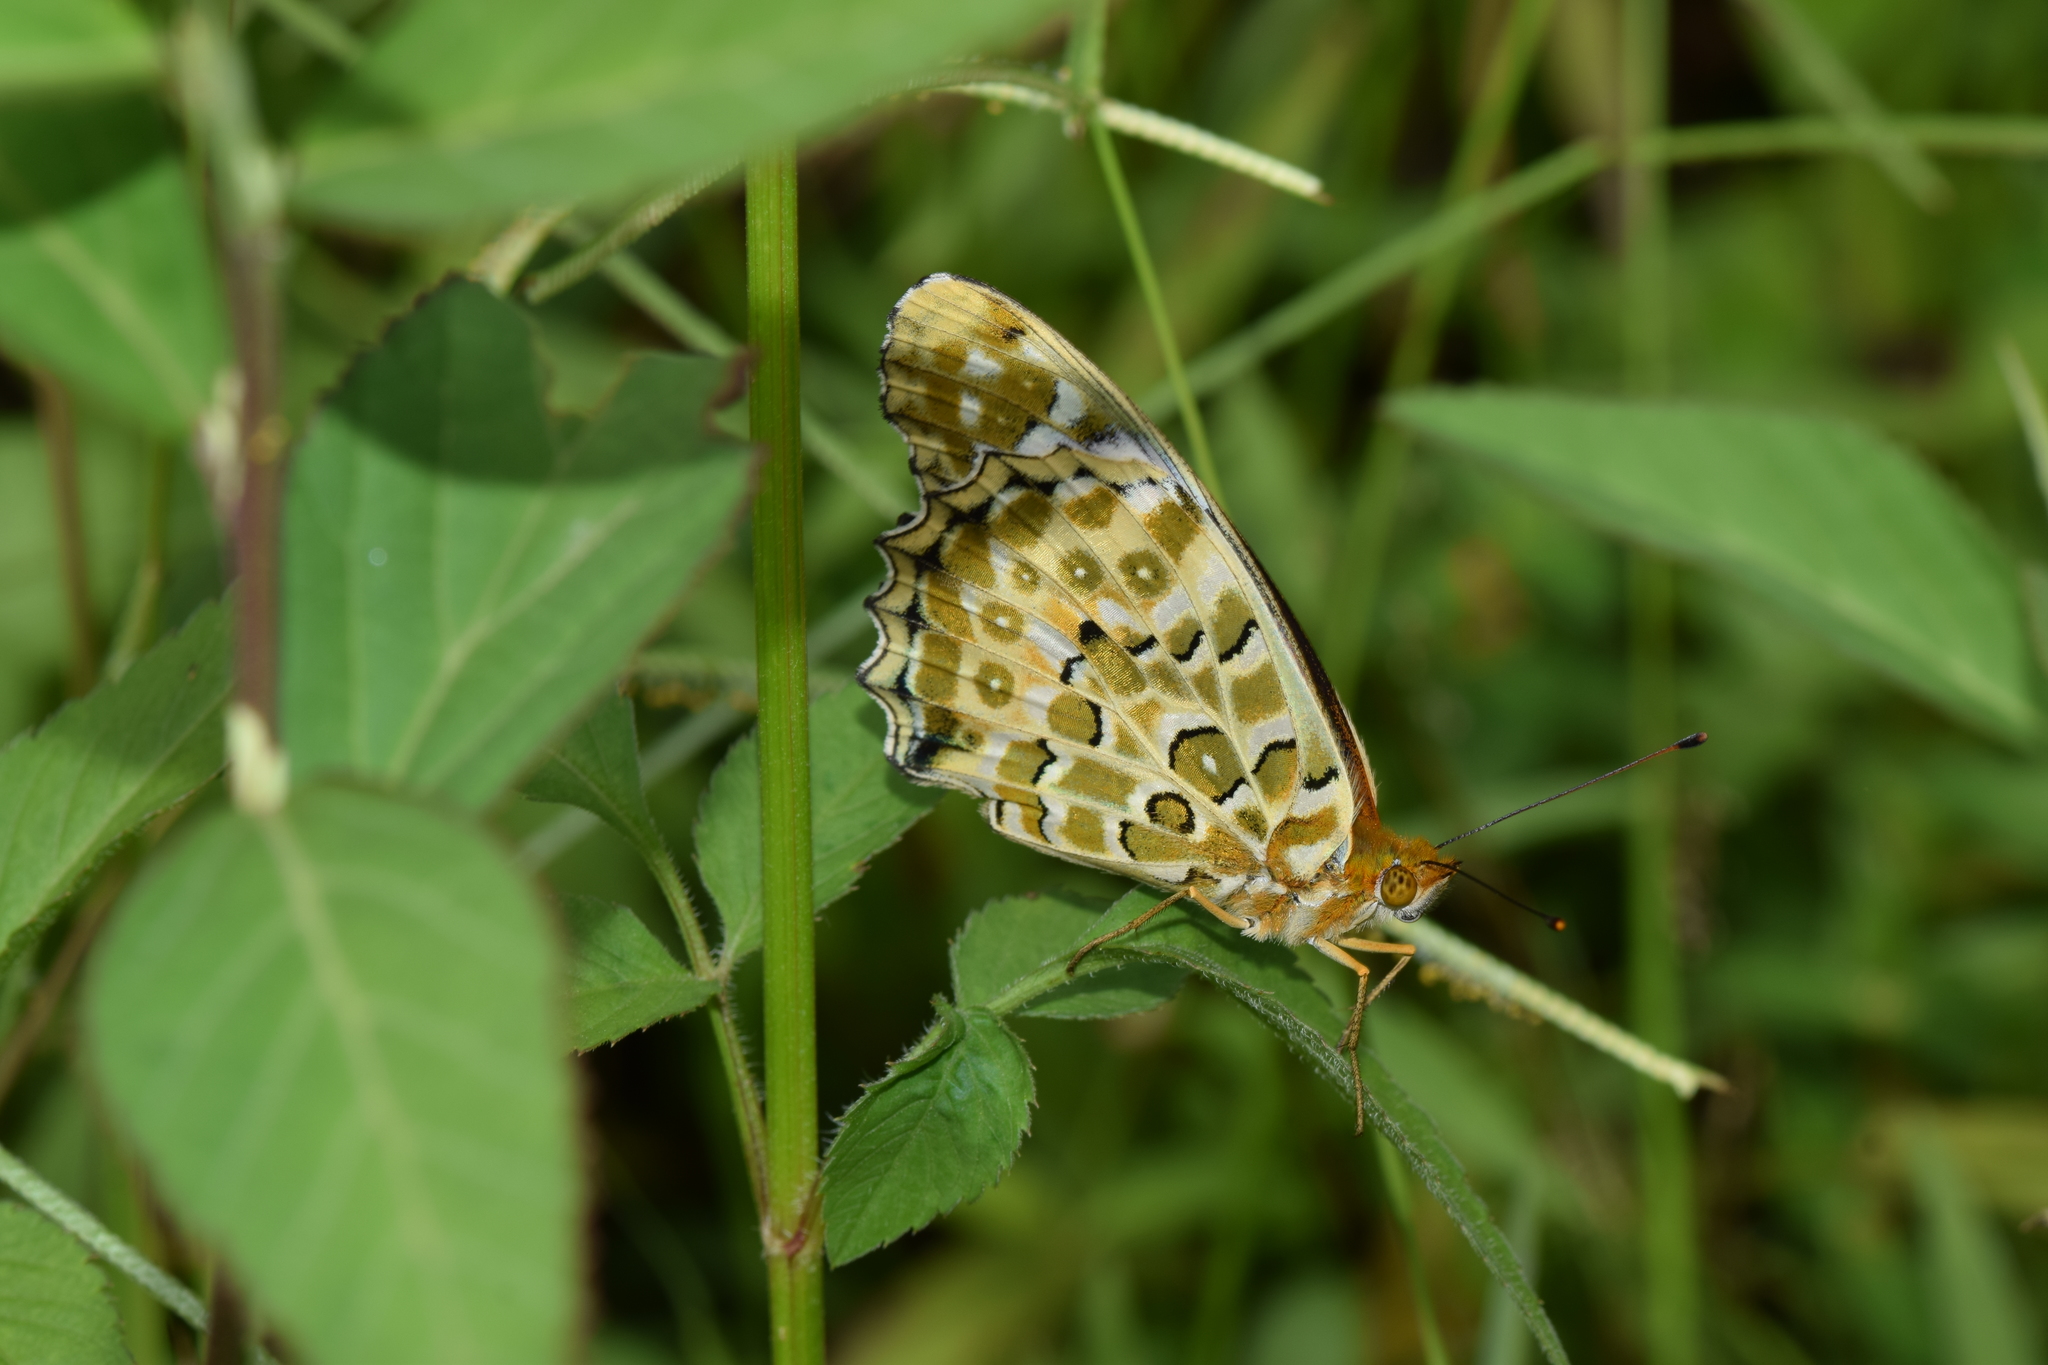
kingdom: Animalia
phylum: Arthropoda
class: Insecta
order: Lepidoptera
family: Nymphalidae
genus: Argynnis
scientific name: Argynnis hyperbius
